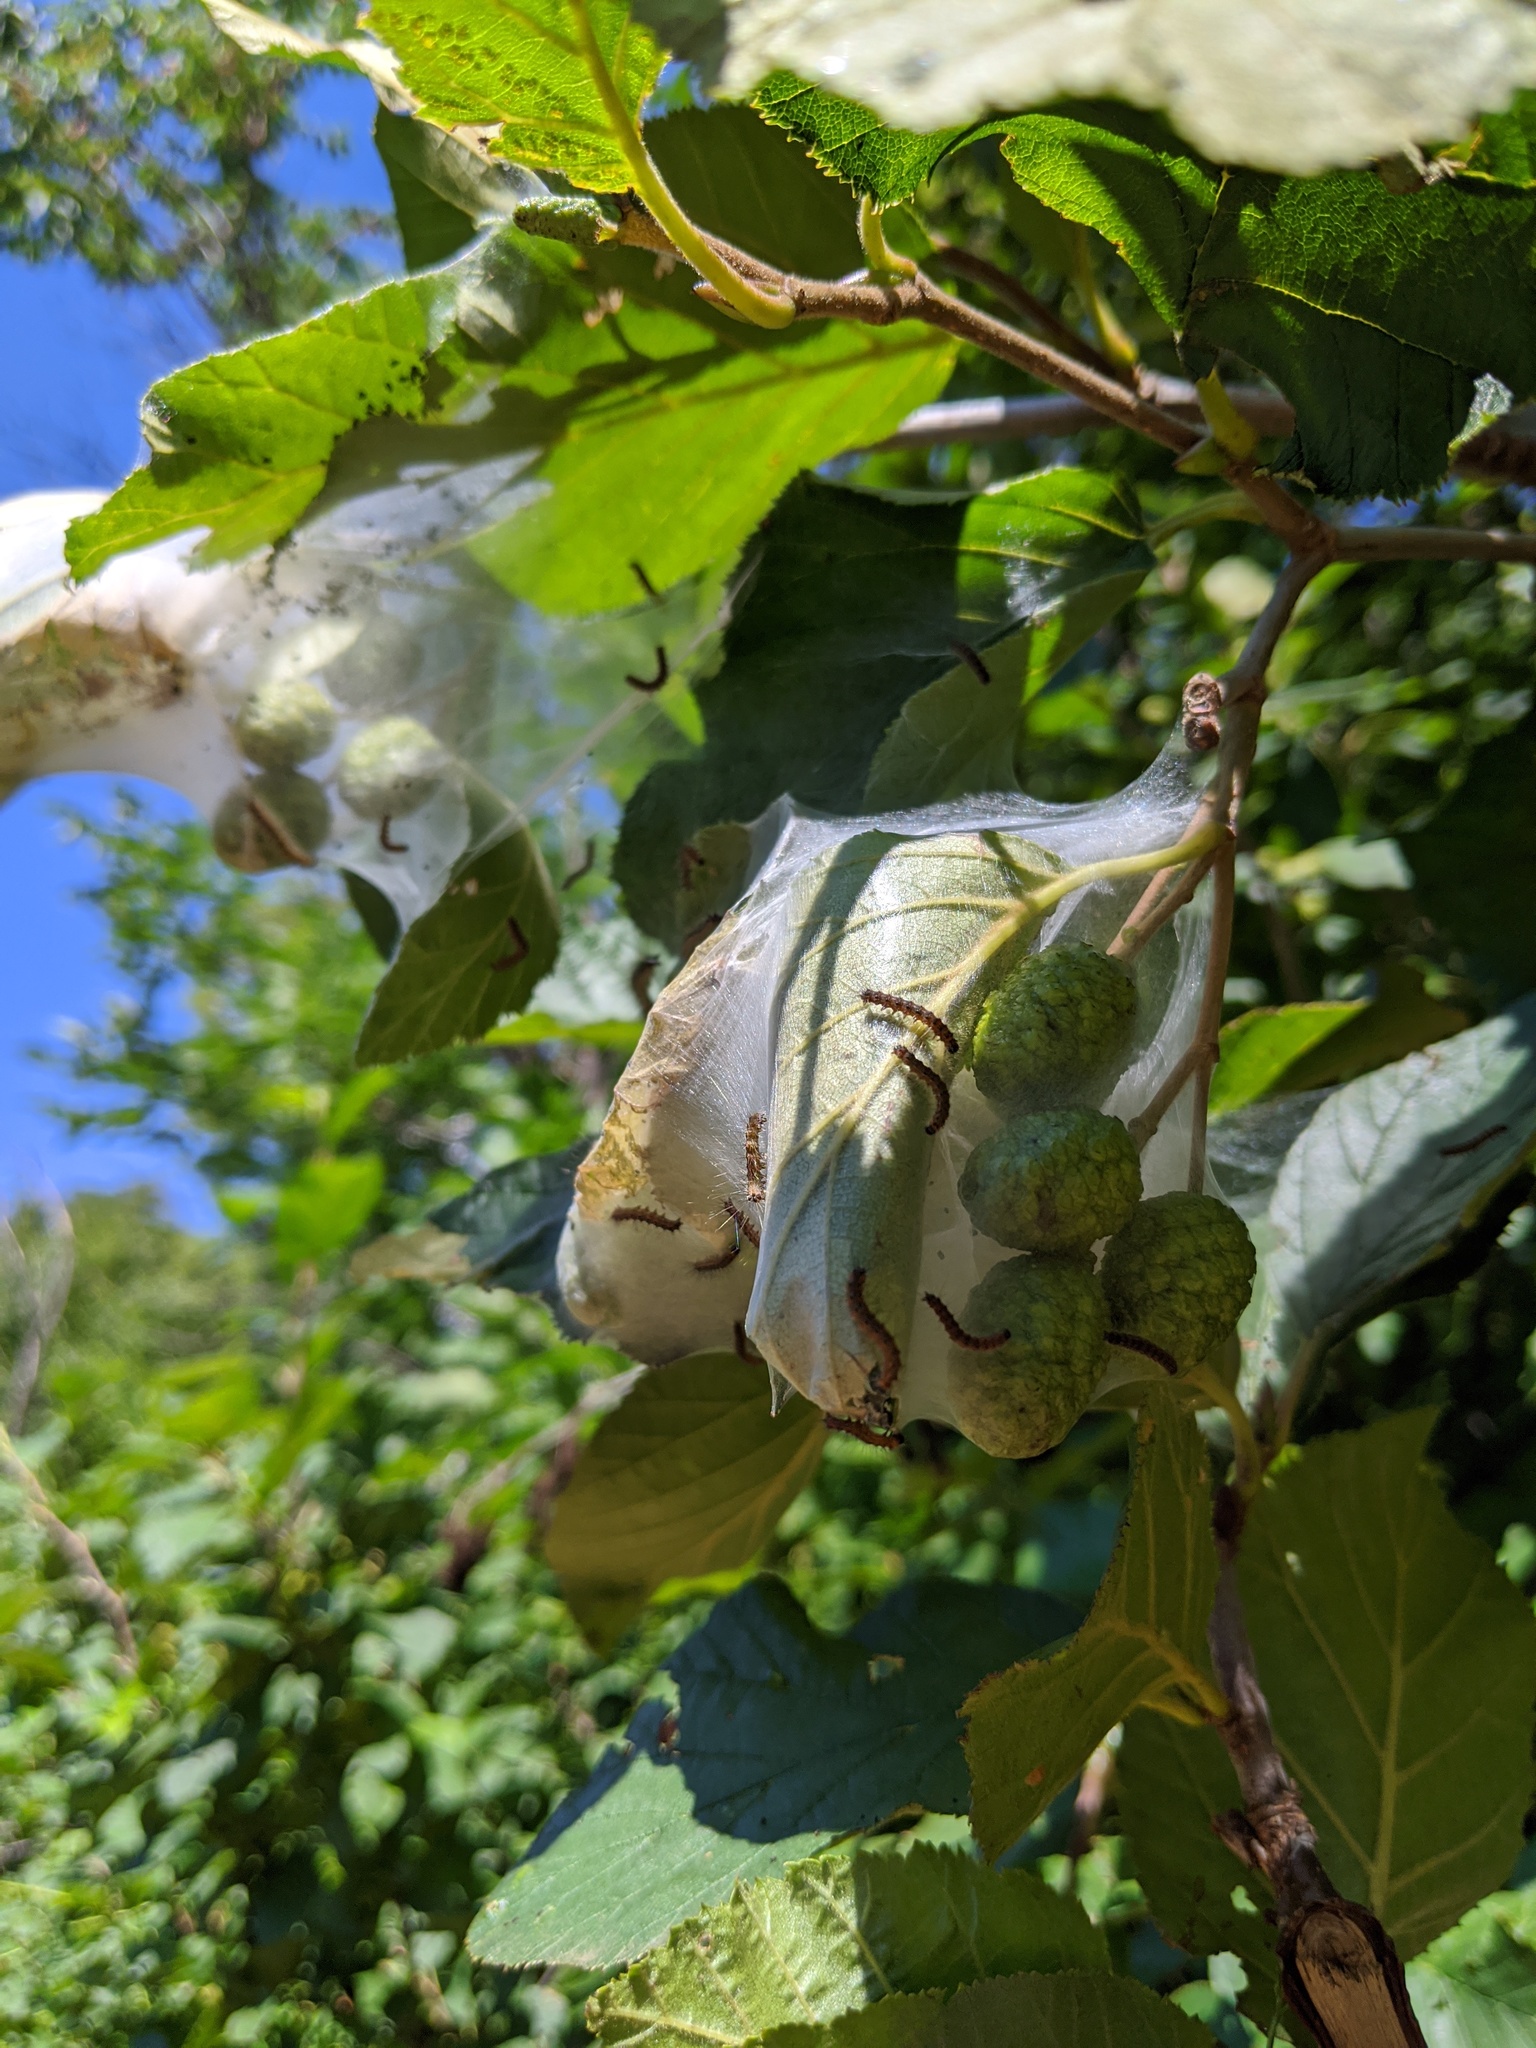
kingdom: Animalia
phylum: Arthropoda
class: Insecta
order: Lepidoptera
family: Erebidae
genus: Hyphantria
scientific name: Hyphantria cunea
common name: American white moth
